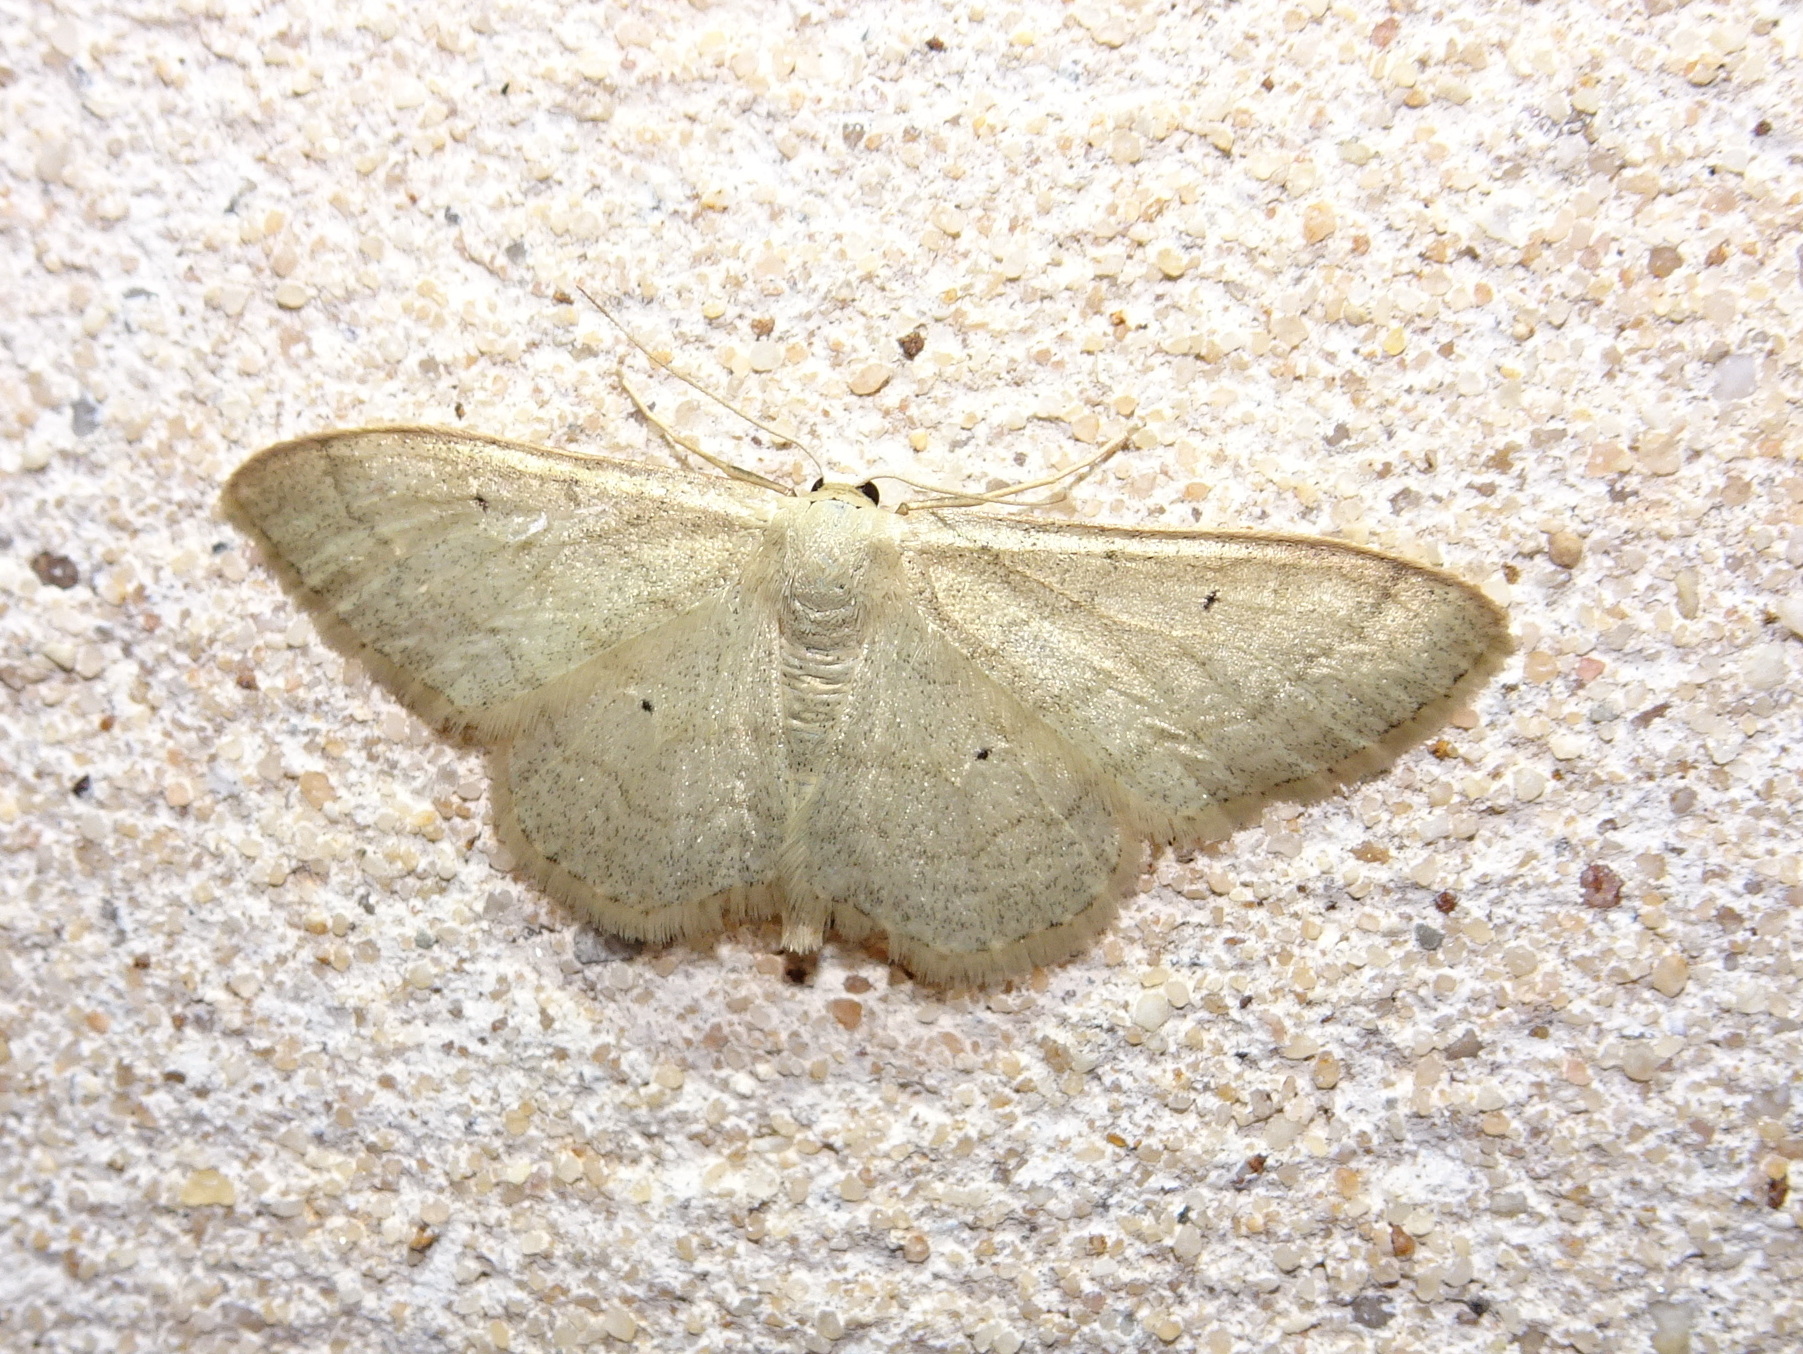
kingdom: Animalia
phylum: Arthropoda
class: Insecta
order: Lepidoptera
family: Geometridae
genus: Idaea
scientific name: Idaea straminata
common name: Plain wave
